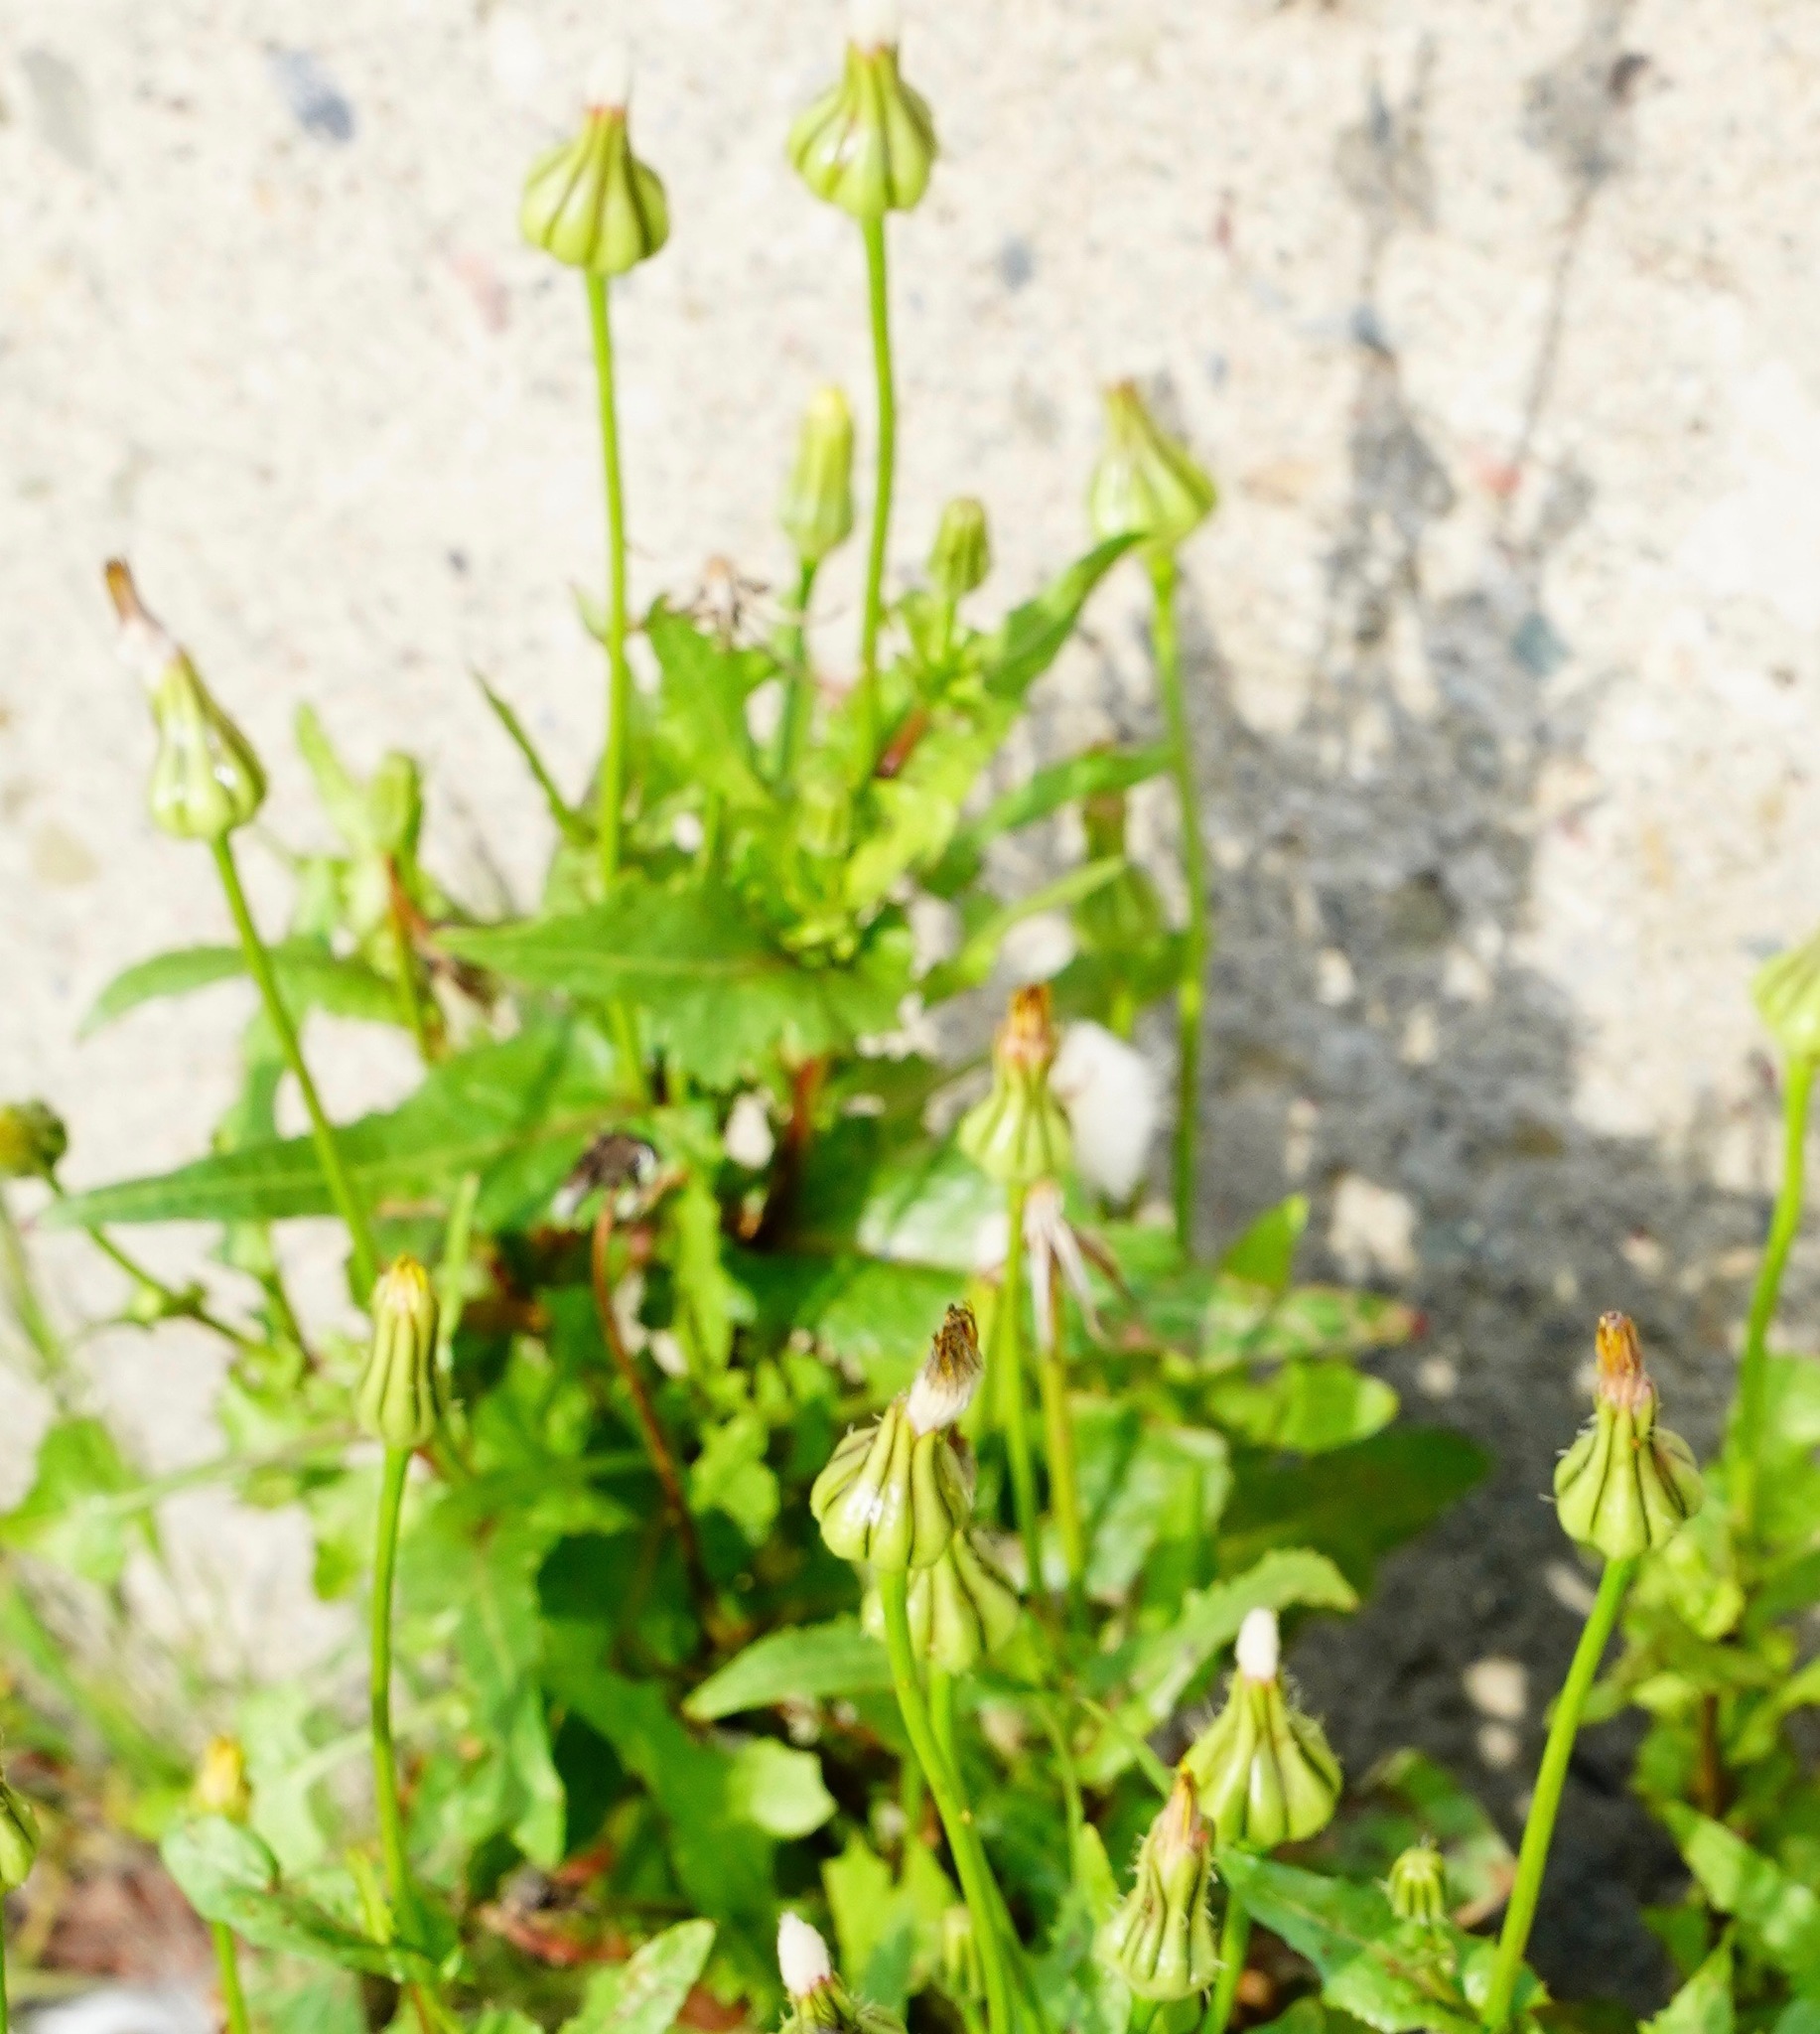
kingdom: Plantae
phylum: Tracheophyta
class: Magnoliopsida
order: Asterales
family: Asteraceae
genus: Urospermum
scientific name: Urospermum picroides
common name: False hawkbit
